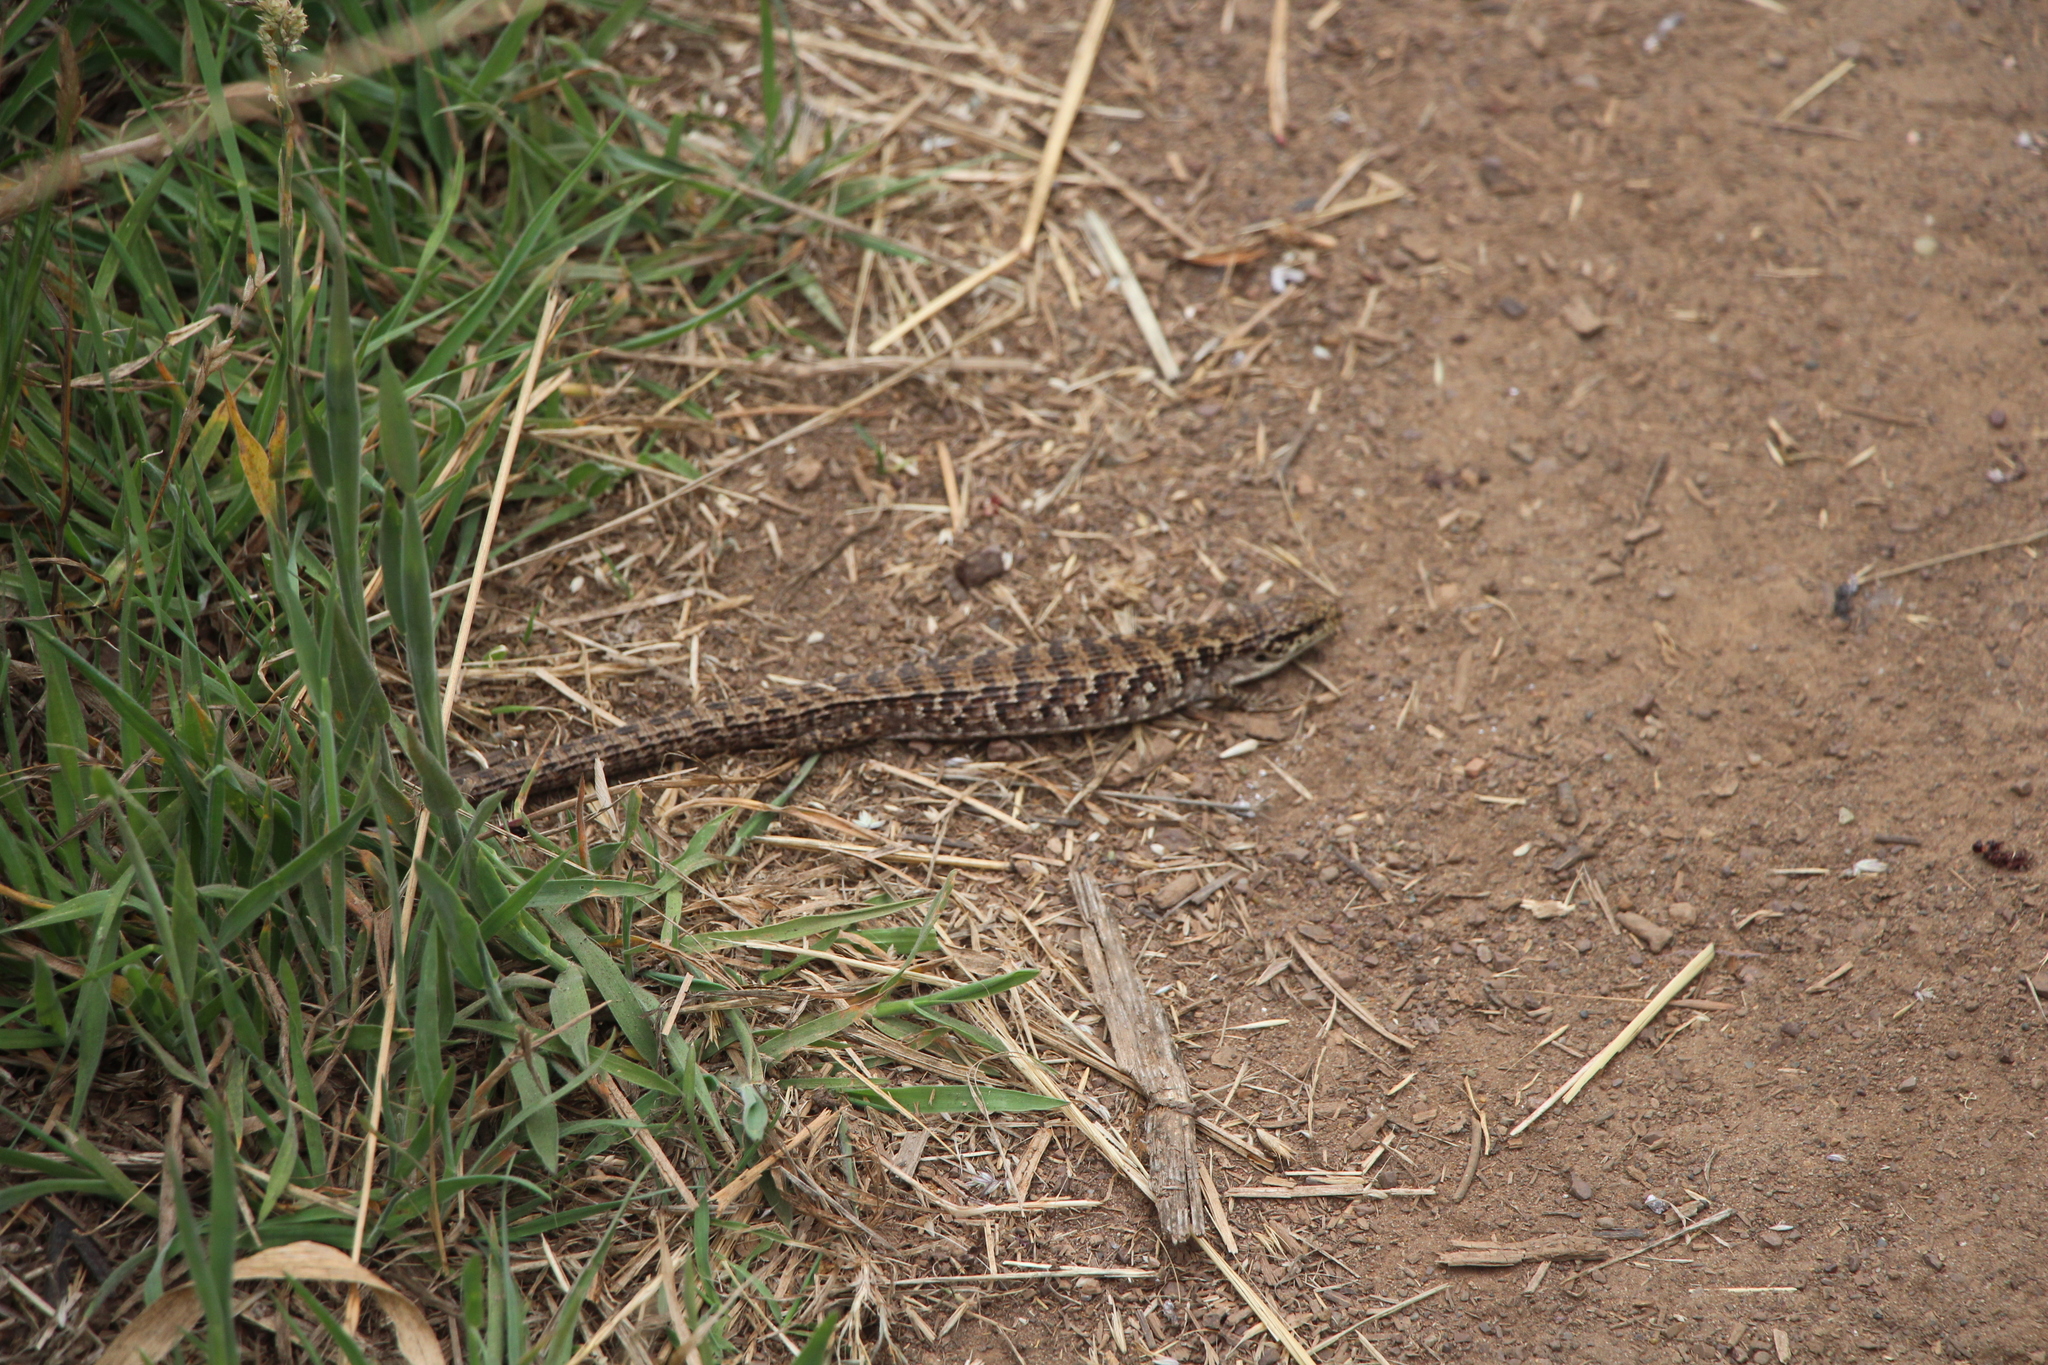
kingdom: Animalia
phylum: Chordata
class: Squamata
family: Anguidae
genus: Elgaria
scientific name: Elgaria coerulea
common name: Northern alligator lizard
